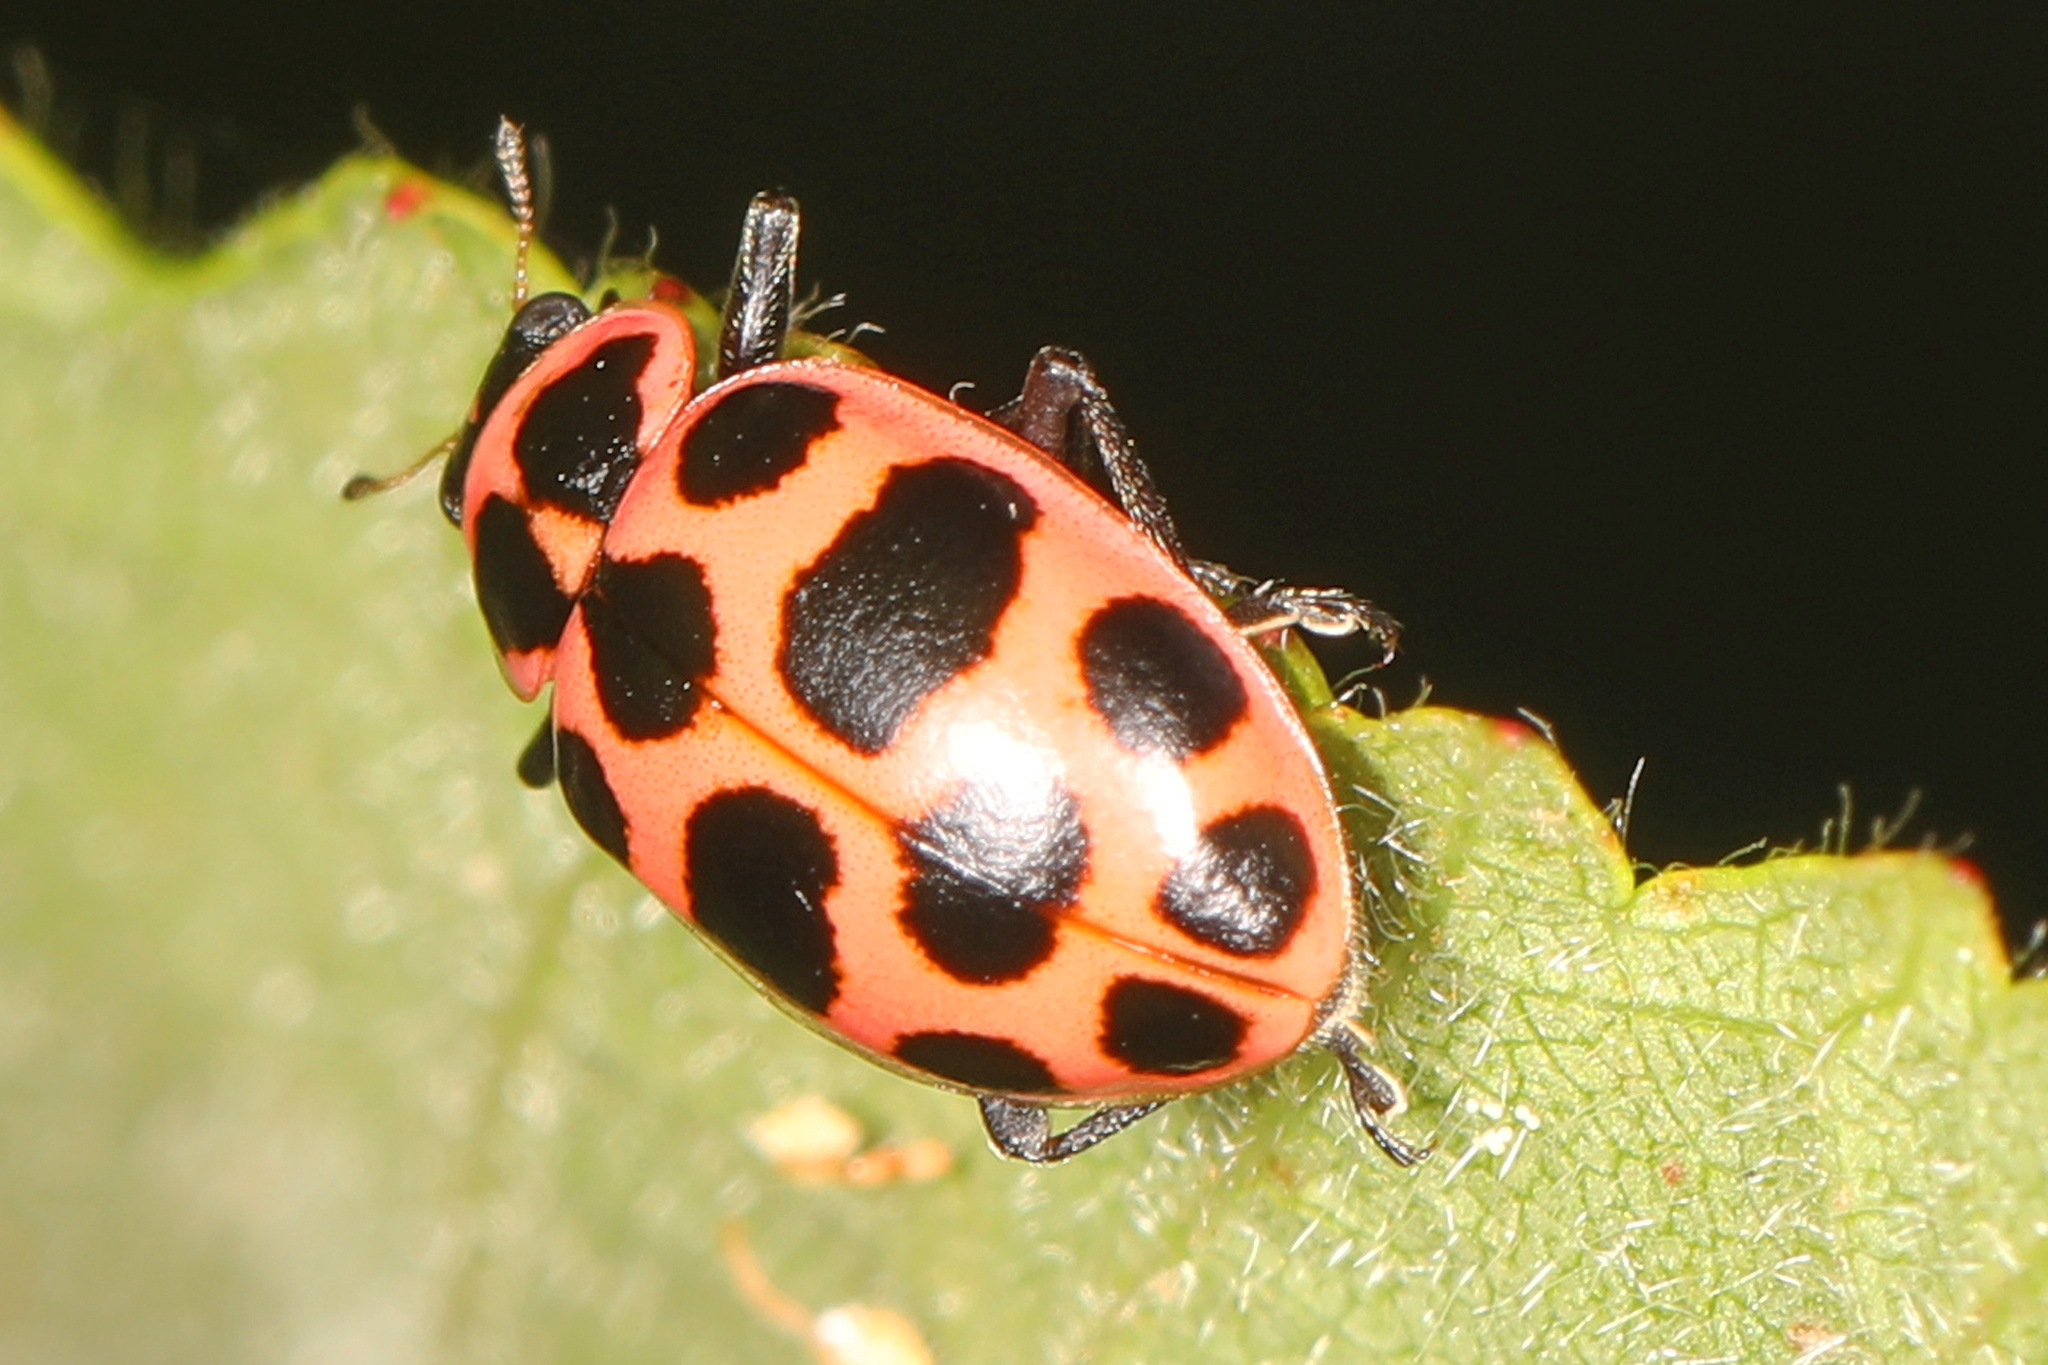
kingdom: Animalia
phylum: Arthropoda
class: Insecta
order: Coleoptera
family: Coccinellidae
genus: Coleomegilla
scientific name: Coleomegilla maculata
